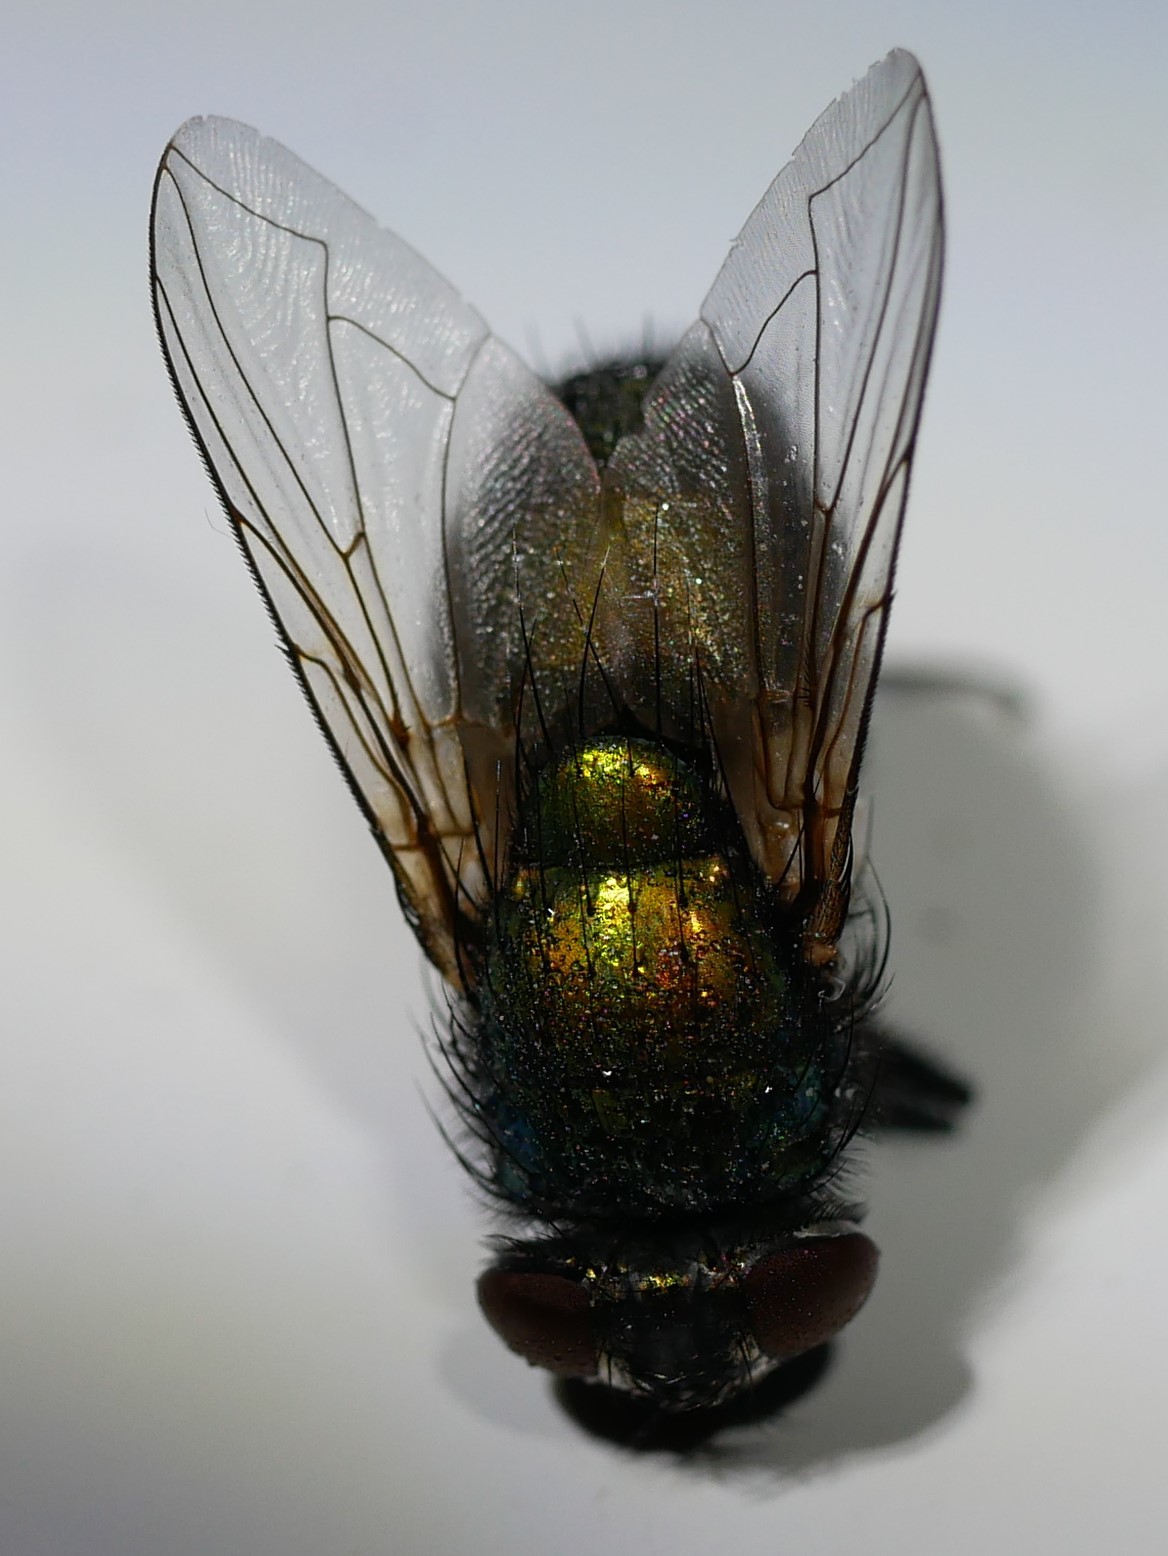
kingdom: Animalia
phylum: Arthropoda
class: Insecta
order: Diptera
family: Calliphoridae
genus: Lucilia
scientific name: Lucilia sericata
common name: Blow fly
